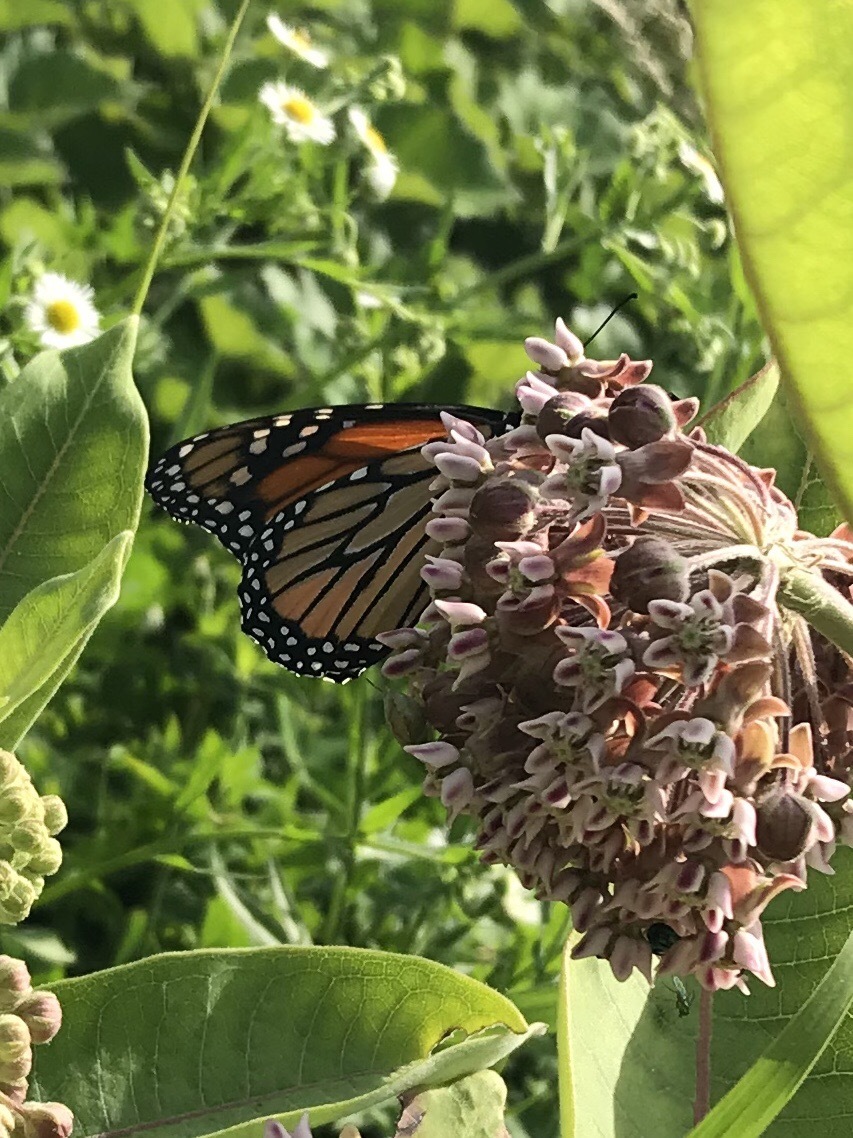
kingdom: Animalia
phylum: Arthropoda
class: Insecta
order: Lepidoptera
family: Nymphalidae
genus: Danaus
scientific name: Danaus plexippus
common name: Monarch
